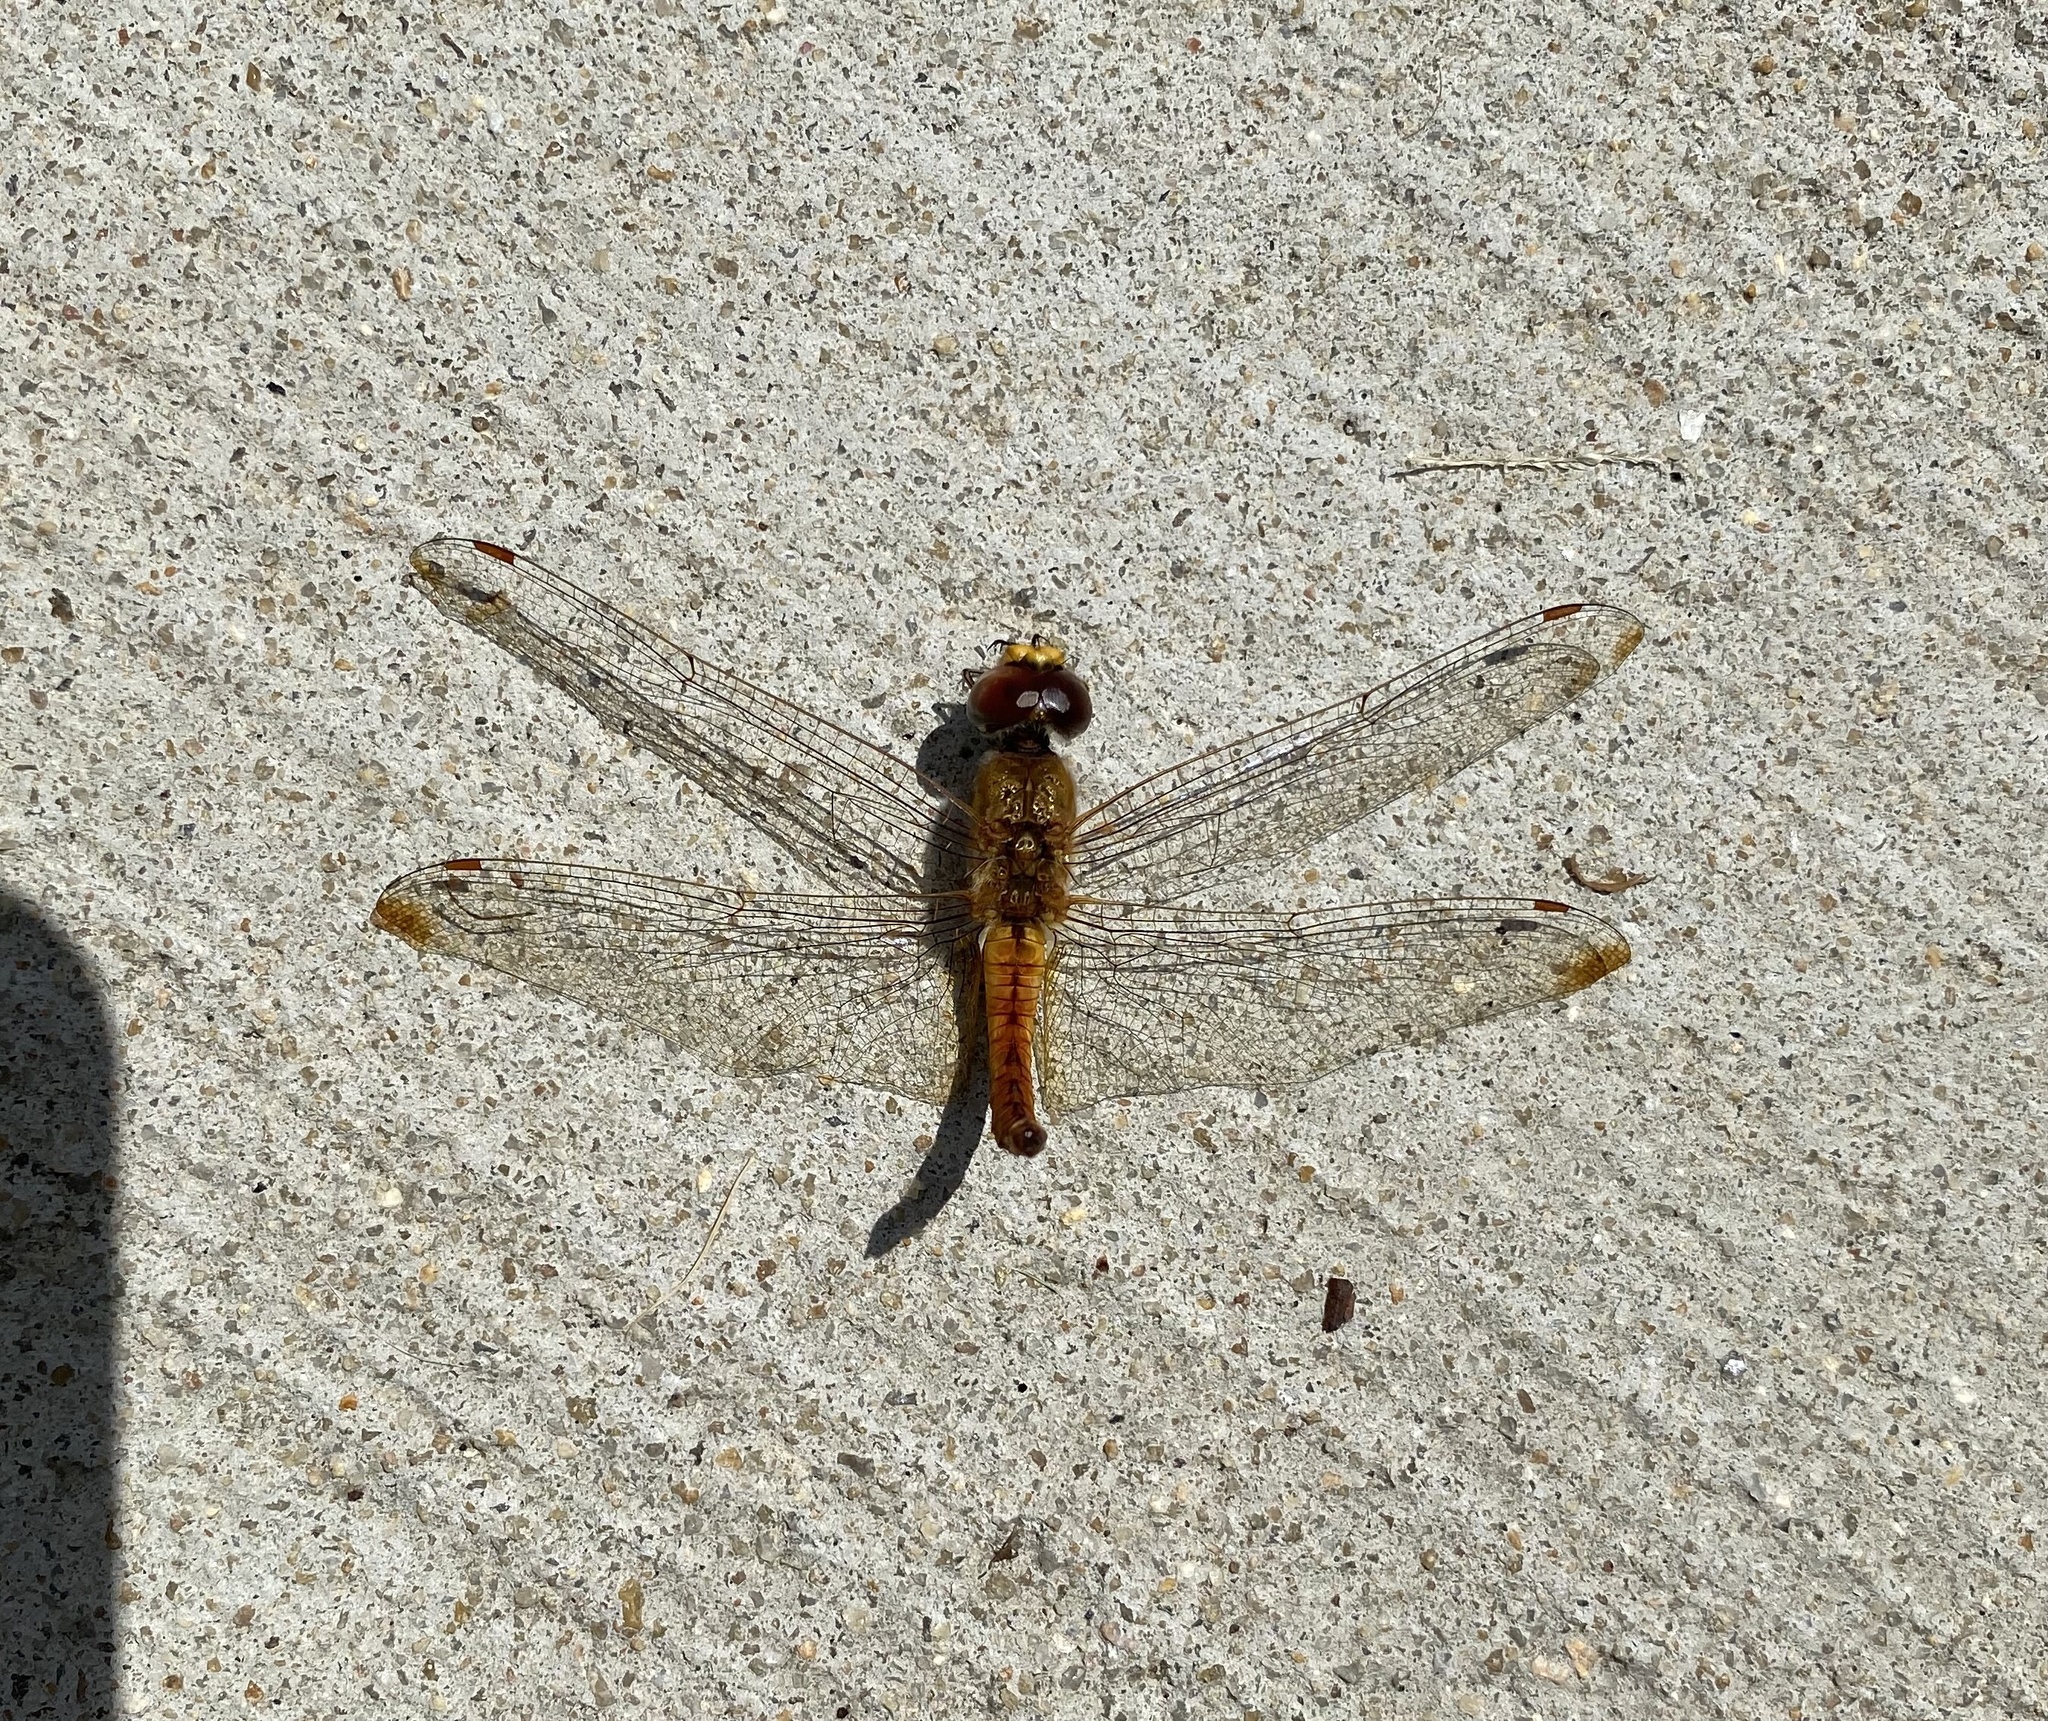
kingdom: Animalia
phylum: Arthropoda
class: Insecta
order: Odonata
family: Libellulidae
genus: Pantala
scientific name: Pantala flavescens
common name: Wandering glider
